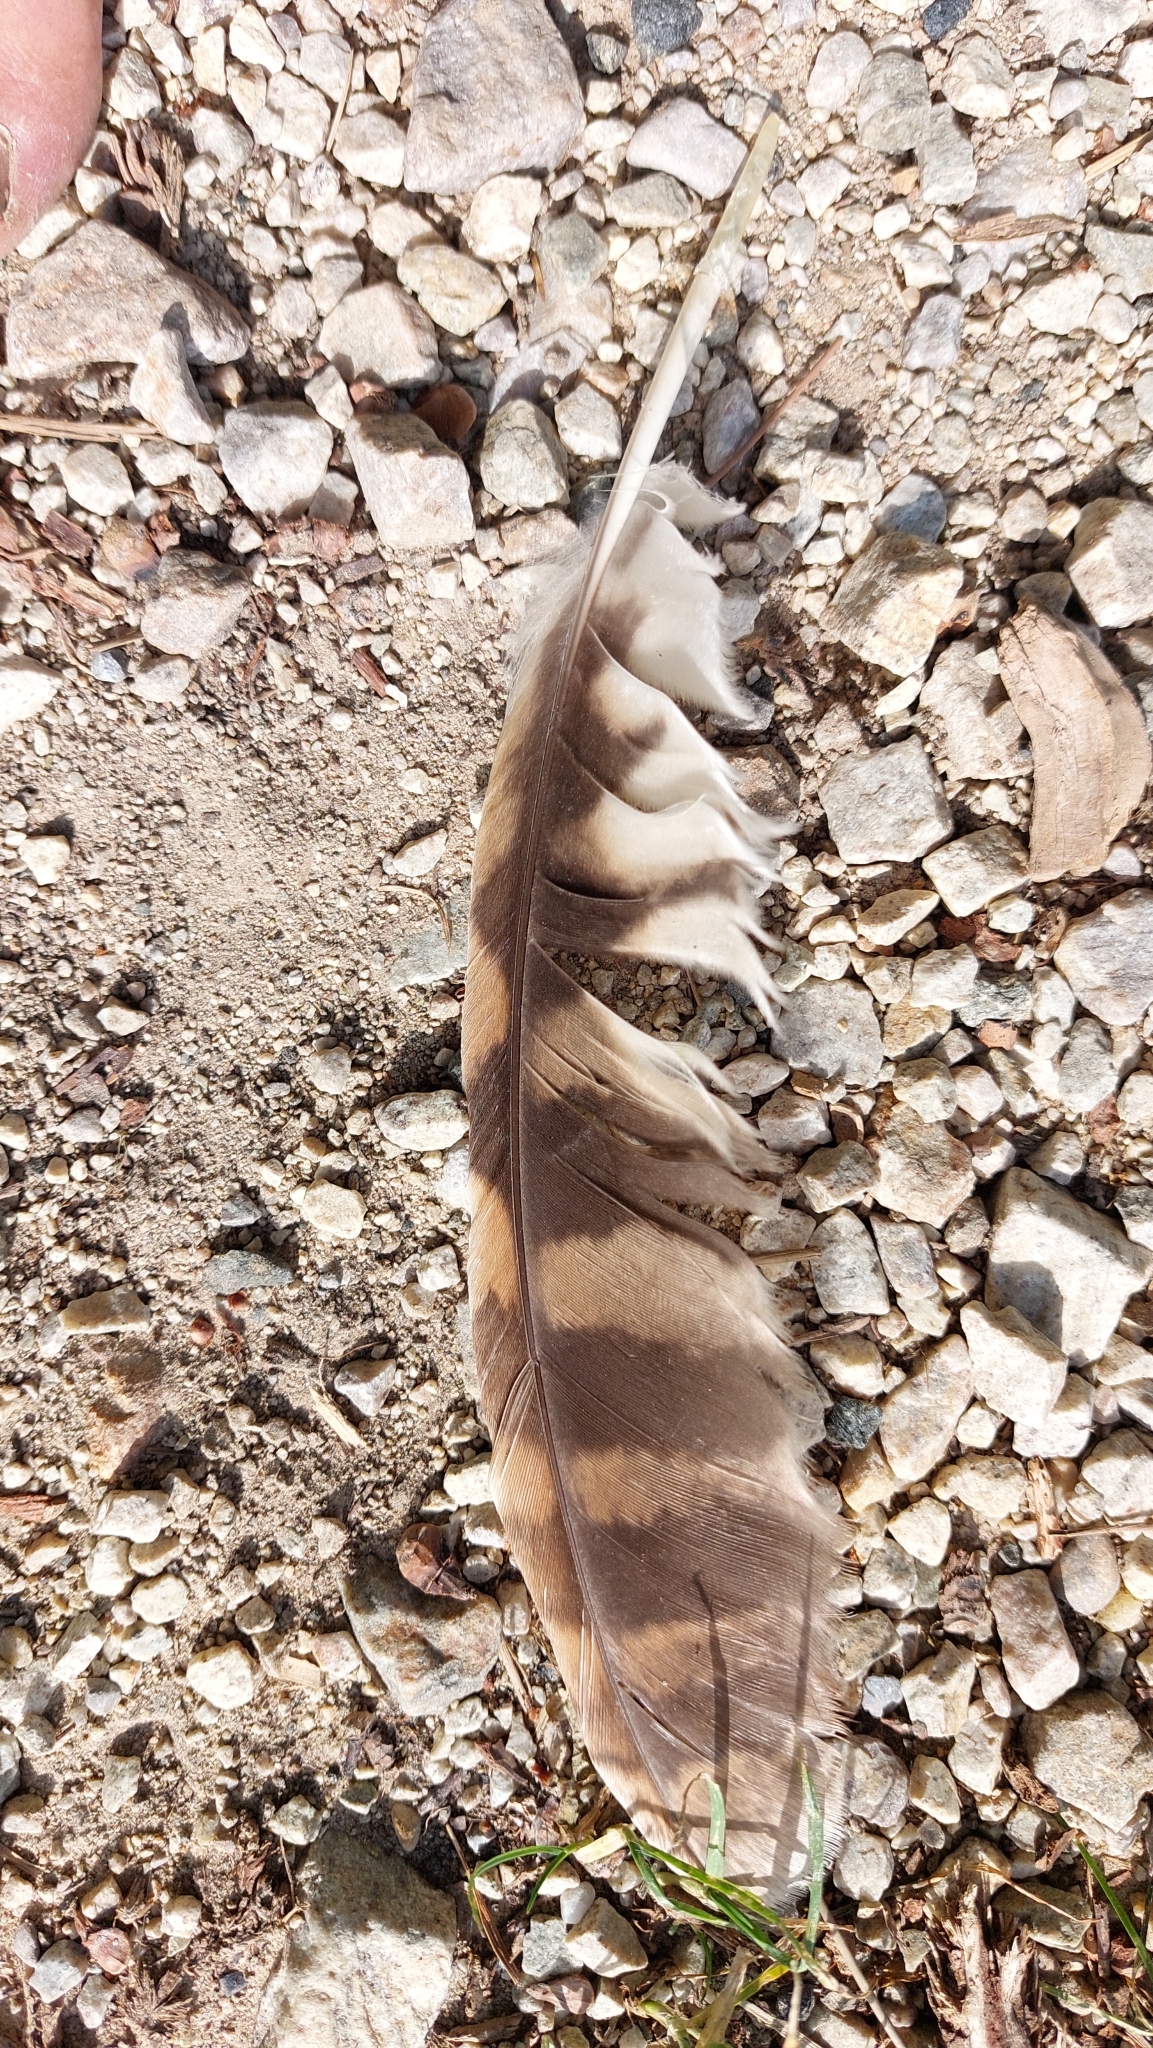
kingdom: Animalia
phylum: Chordata
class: Aves
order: Strigiformes
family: Strigidae
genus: Strix
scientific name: Strix aluco
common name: Tawny owl
